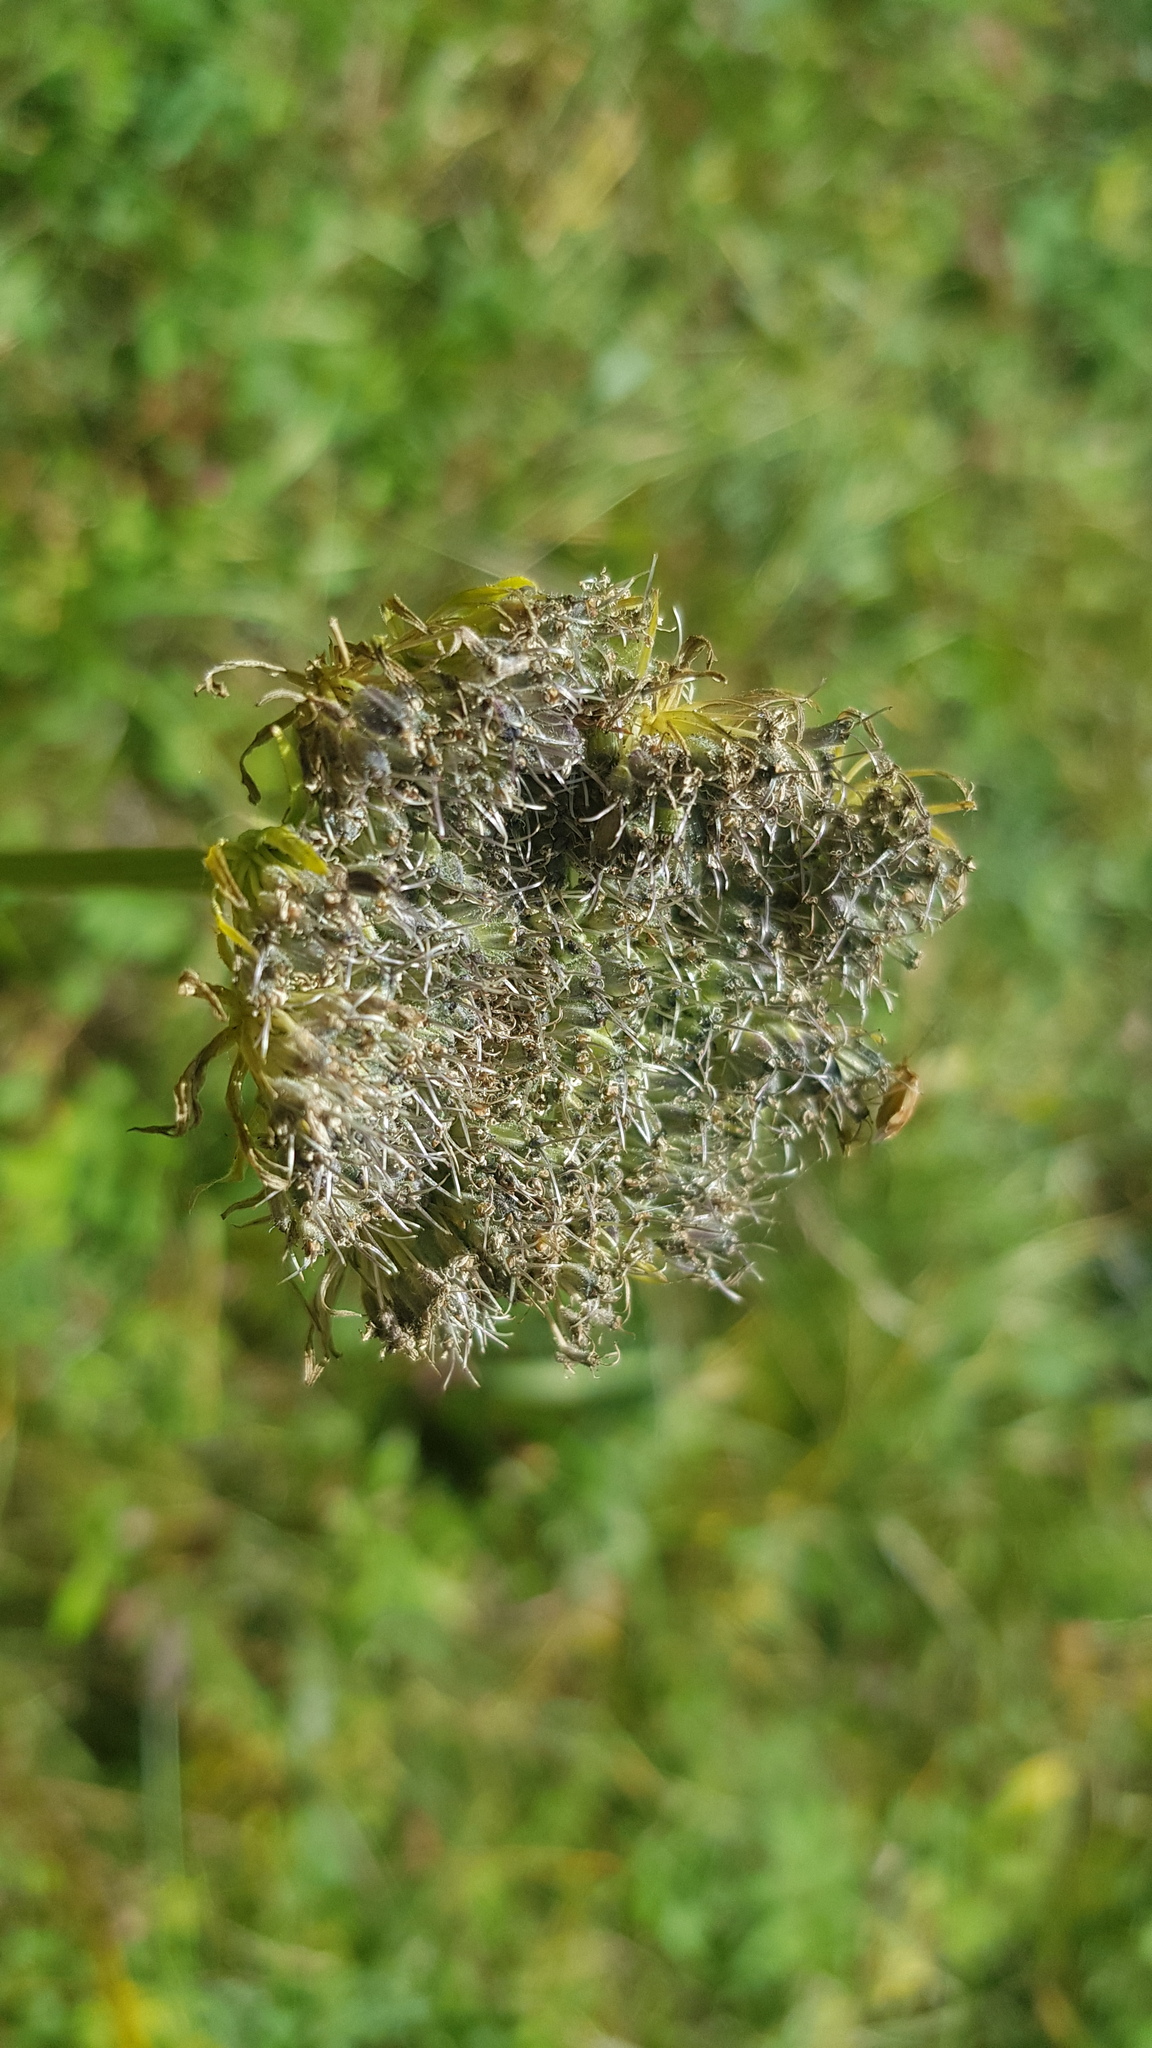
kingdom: Plantae
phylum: Tracheophyta
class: Magnoliopsida
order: Apiales
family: Apiaceae
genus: Seseli
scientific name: Seseli condensatum
